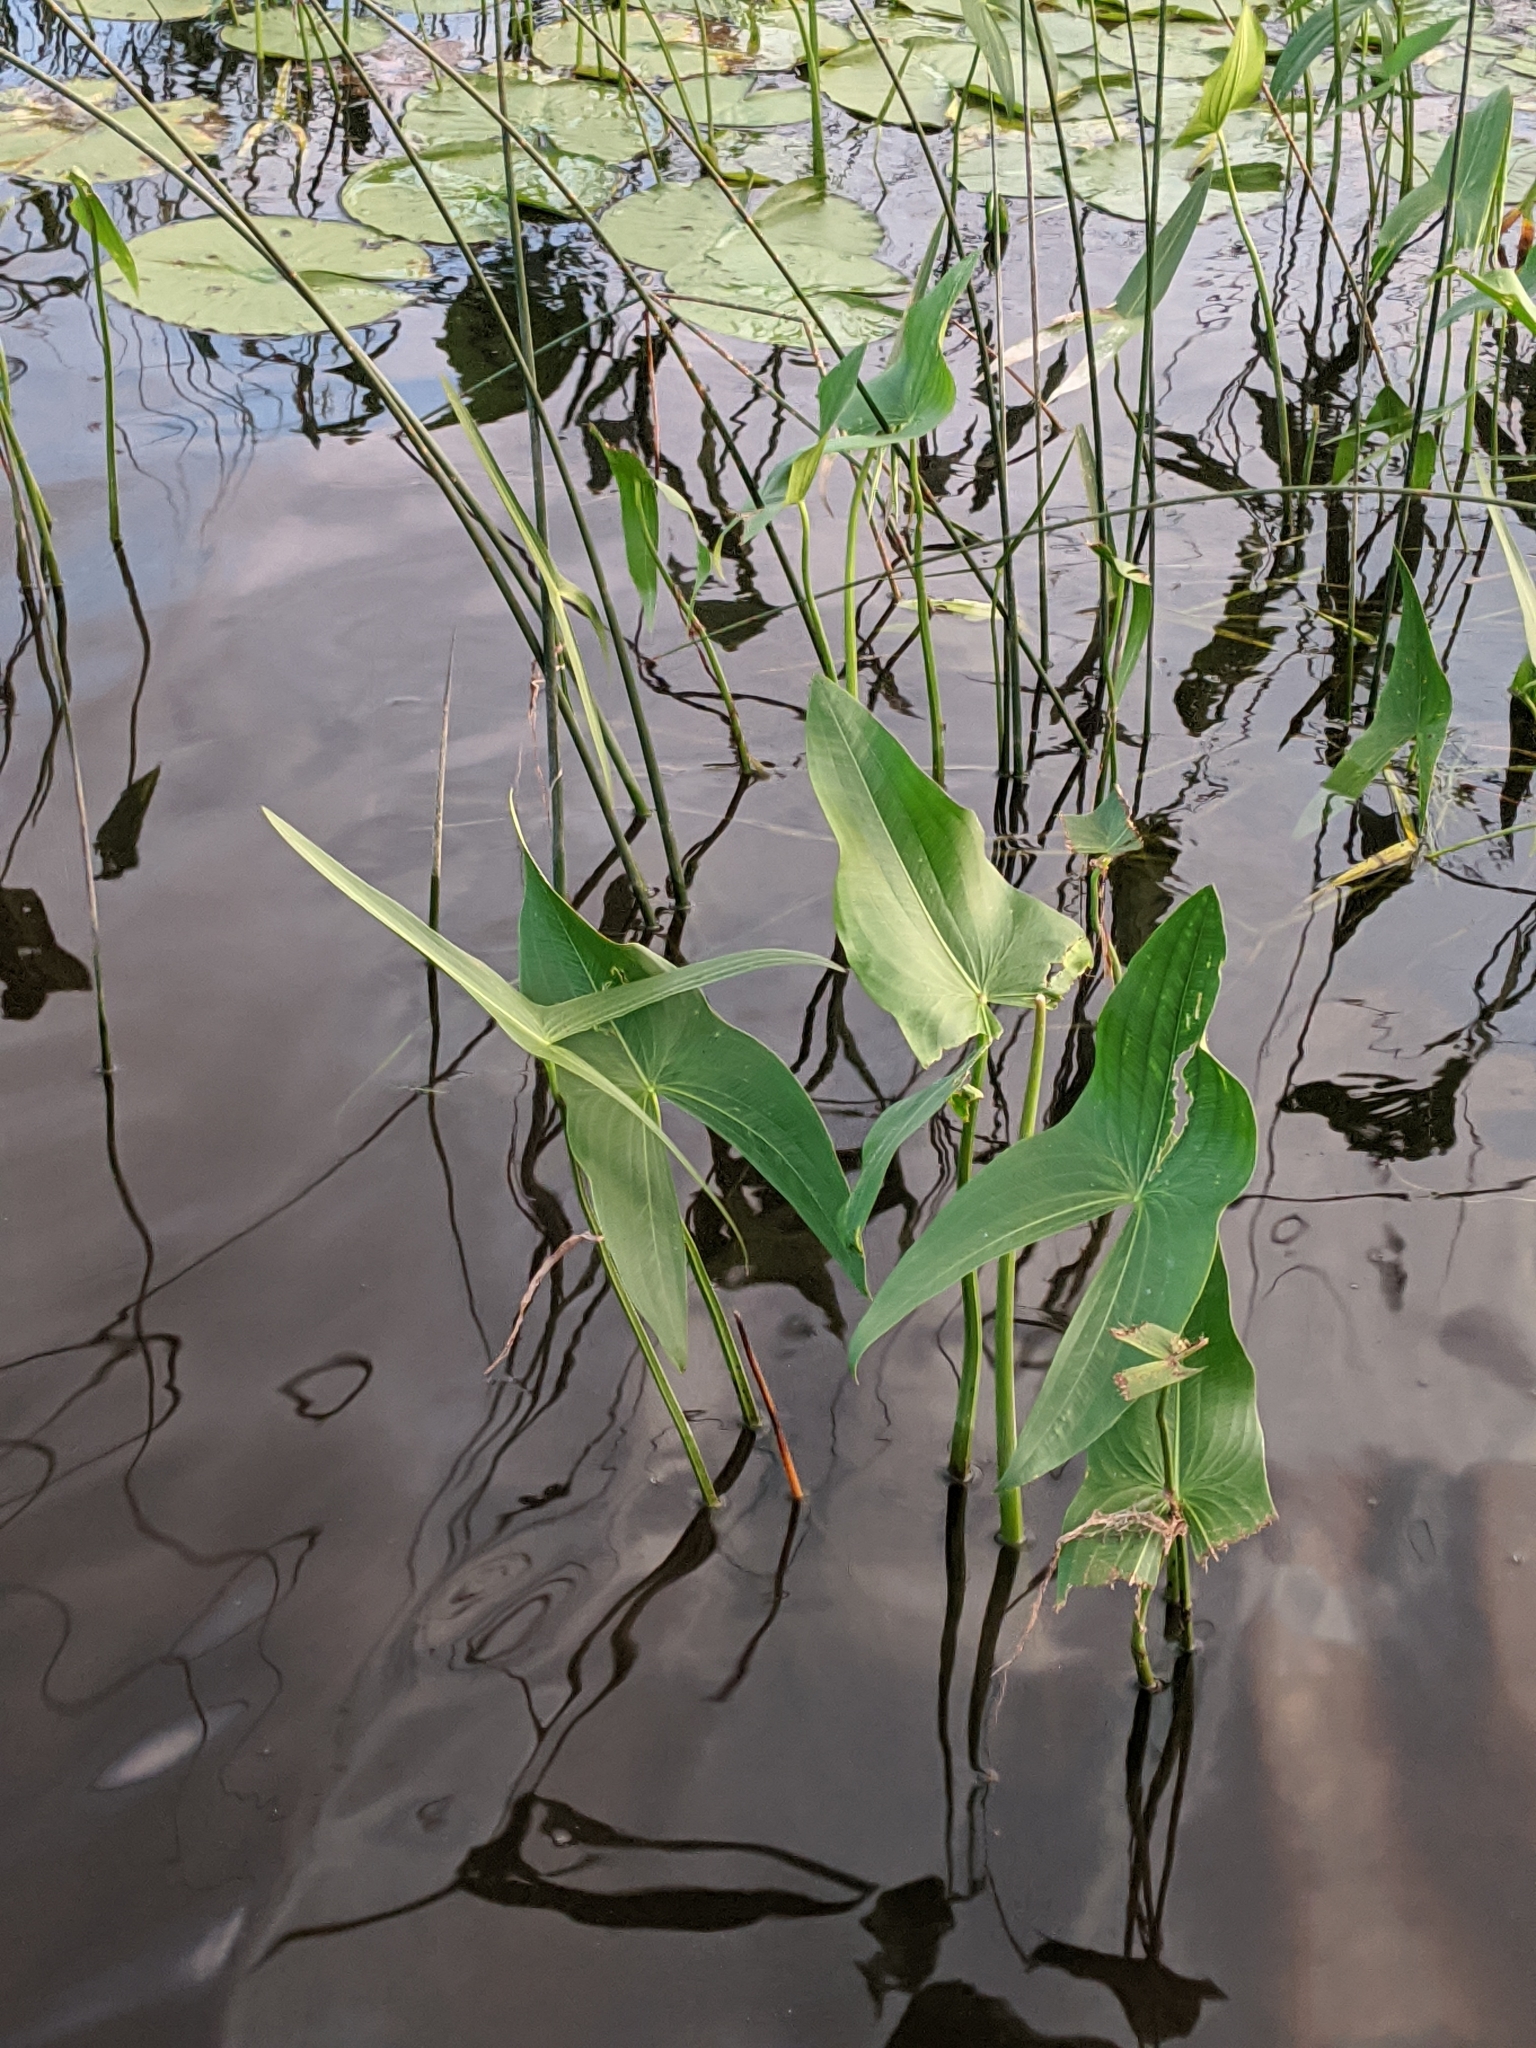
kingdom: Plantae
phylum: Tracheophyta
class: Liliopsida
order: Alismatales
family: Alismataceae
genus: Sagittaria
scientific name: Sagittaria latifolia
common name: Duck-potato
